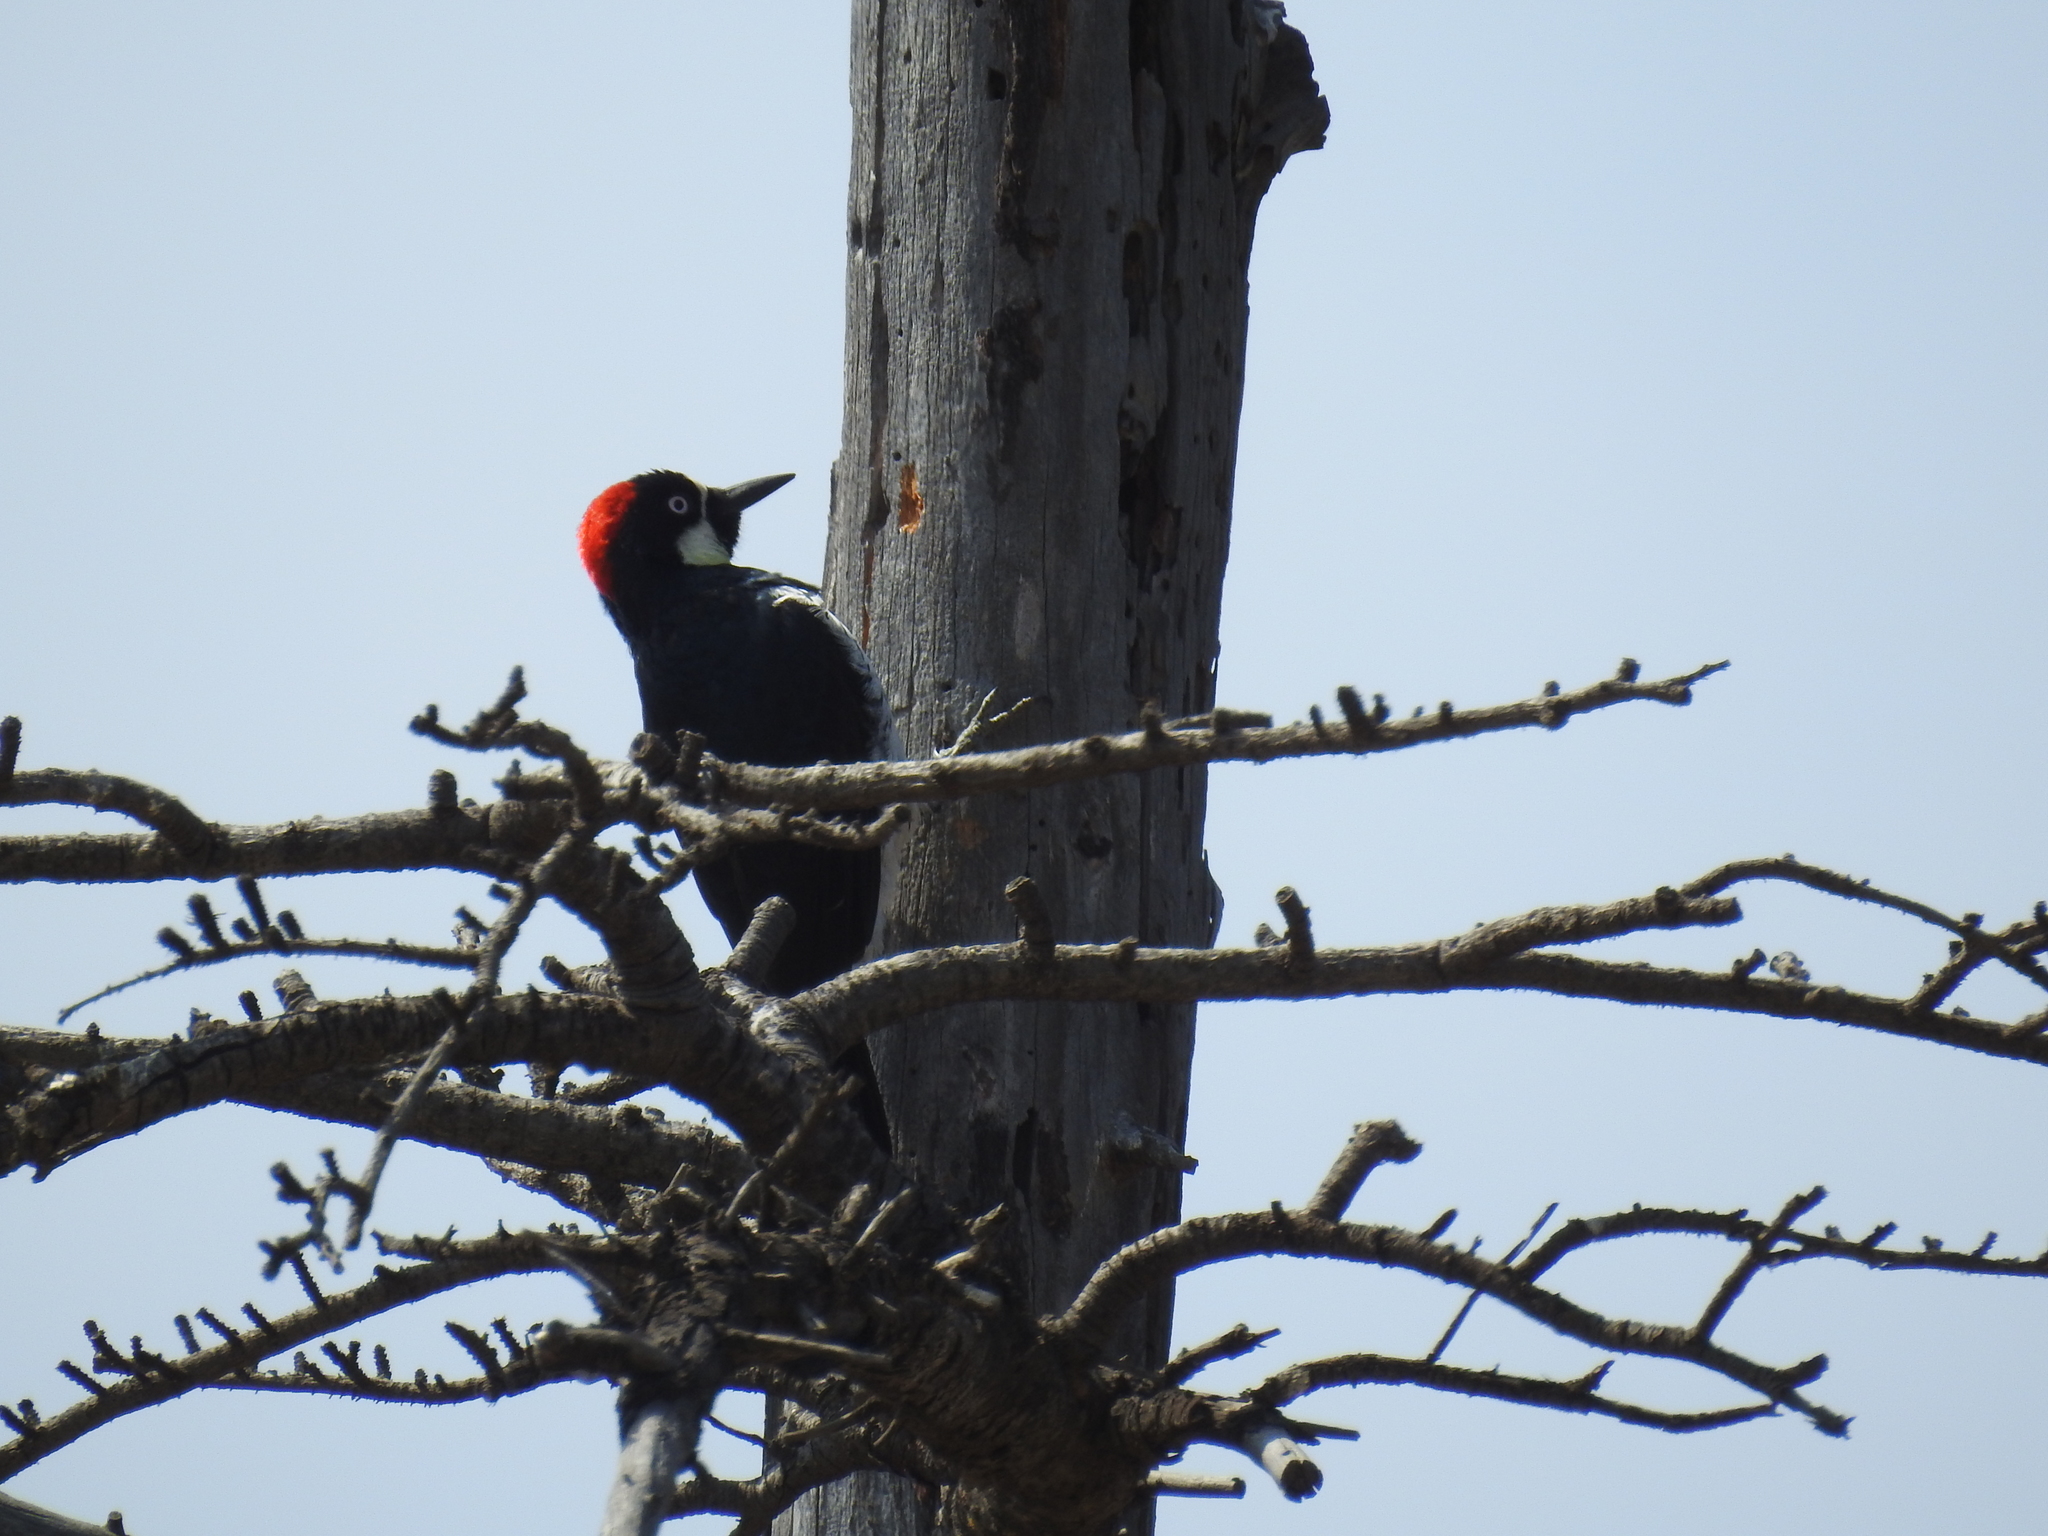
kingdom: Animalia
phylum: Chordata
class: Aves
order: Piciformes
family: Picidae
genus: Melanerpes
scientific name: Melanerpes formicivorus
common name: Acorn woodpecker
